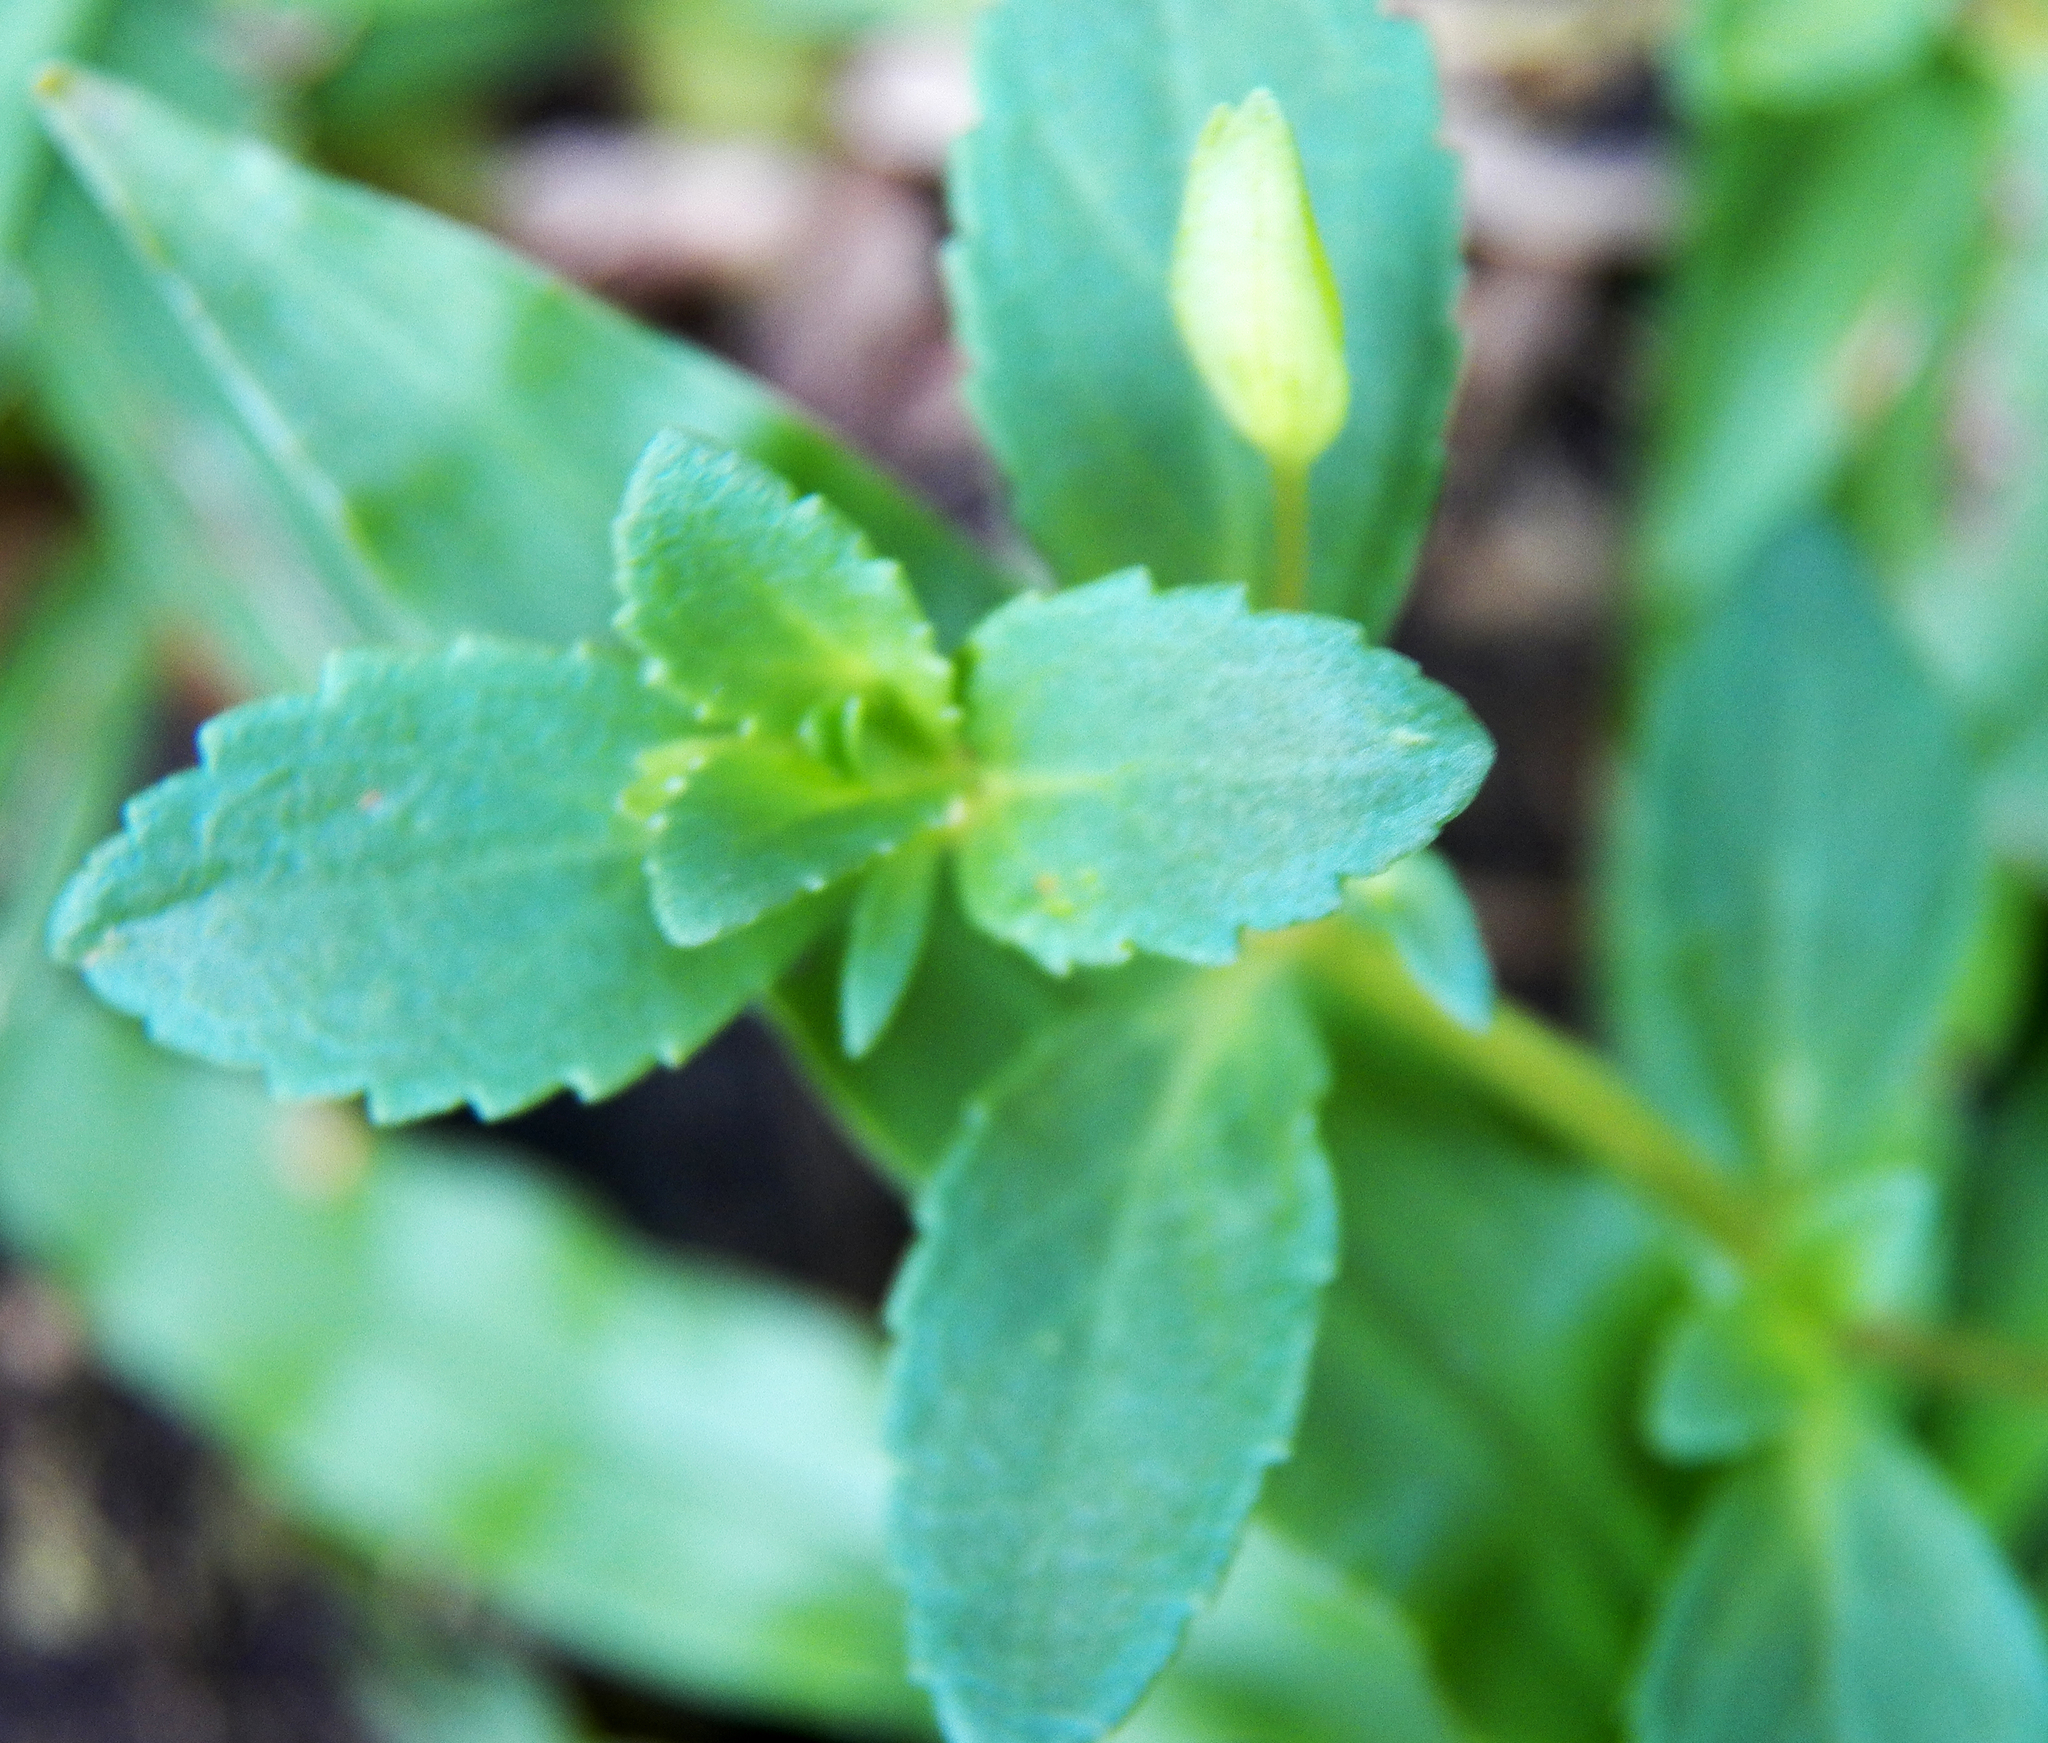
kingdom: Plantae
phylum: Tracheophyta
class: Magnoliopsida
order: Lamiales
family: Plantaginaceae
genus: Mecardonia
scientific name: Mecardonia procumbens
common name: Baby jump-up
